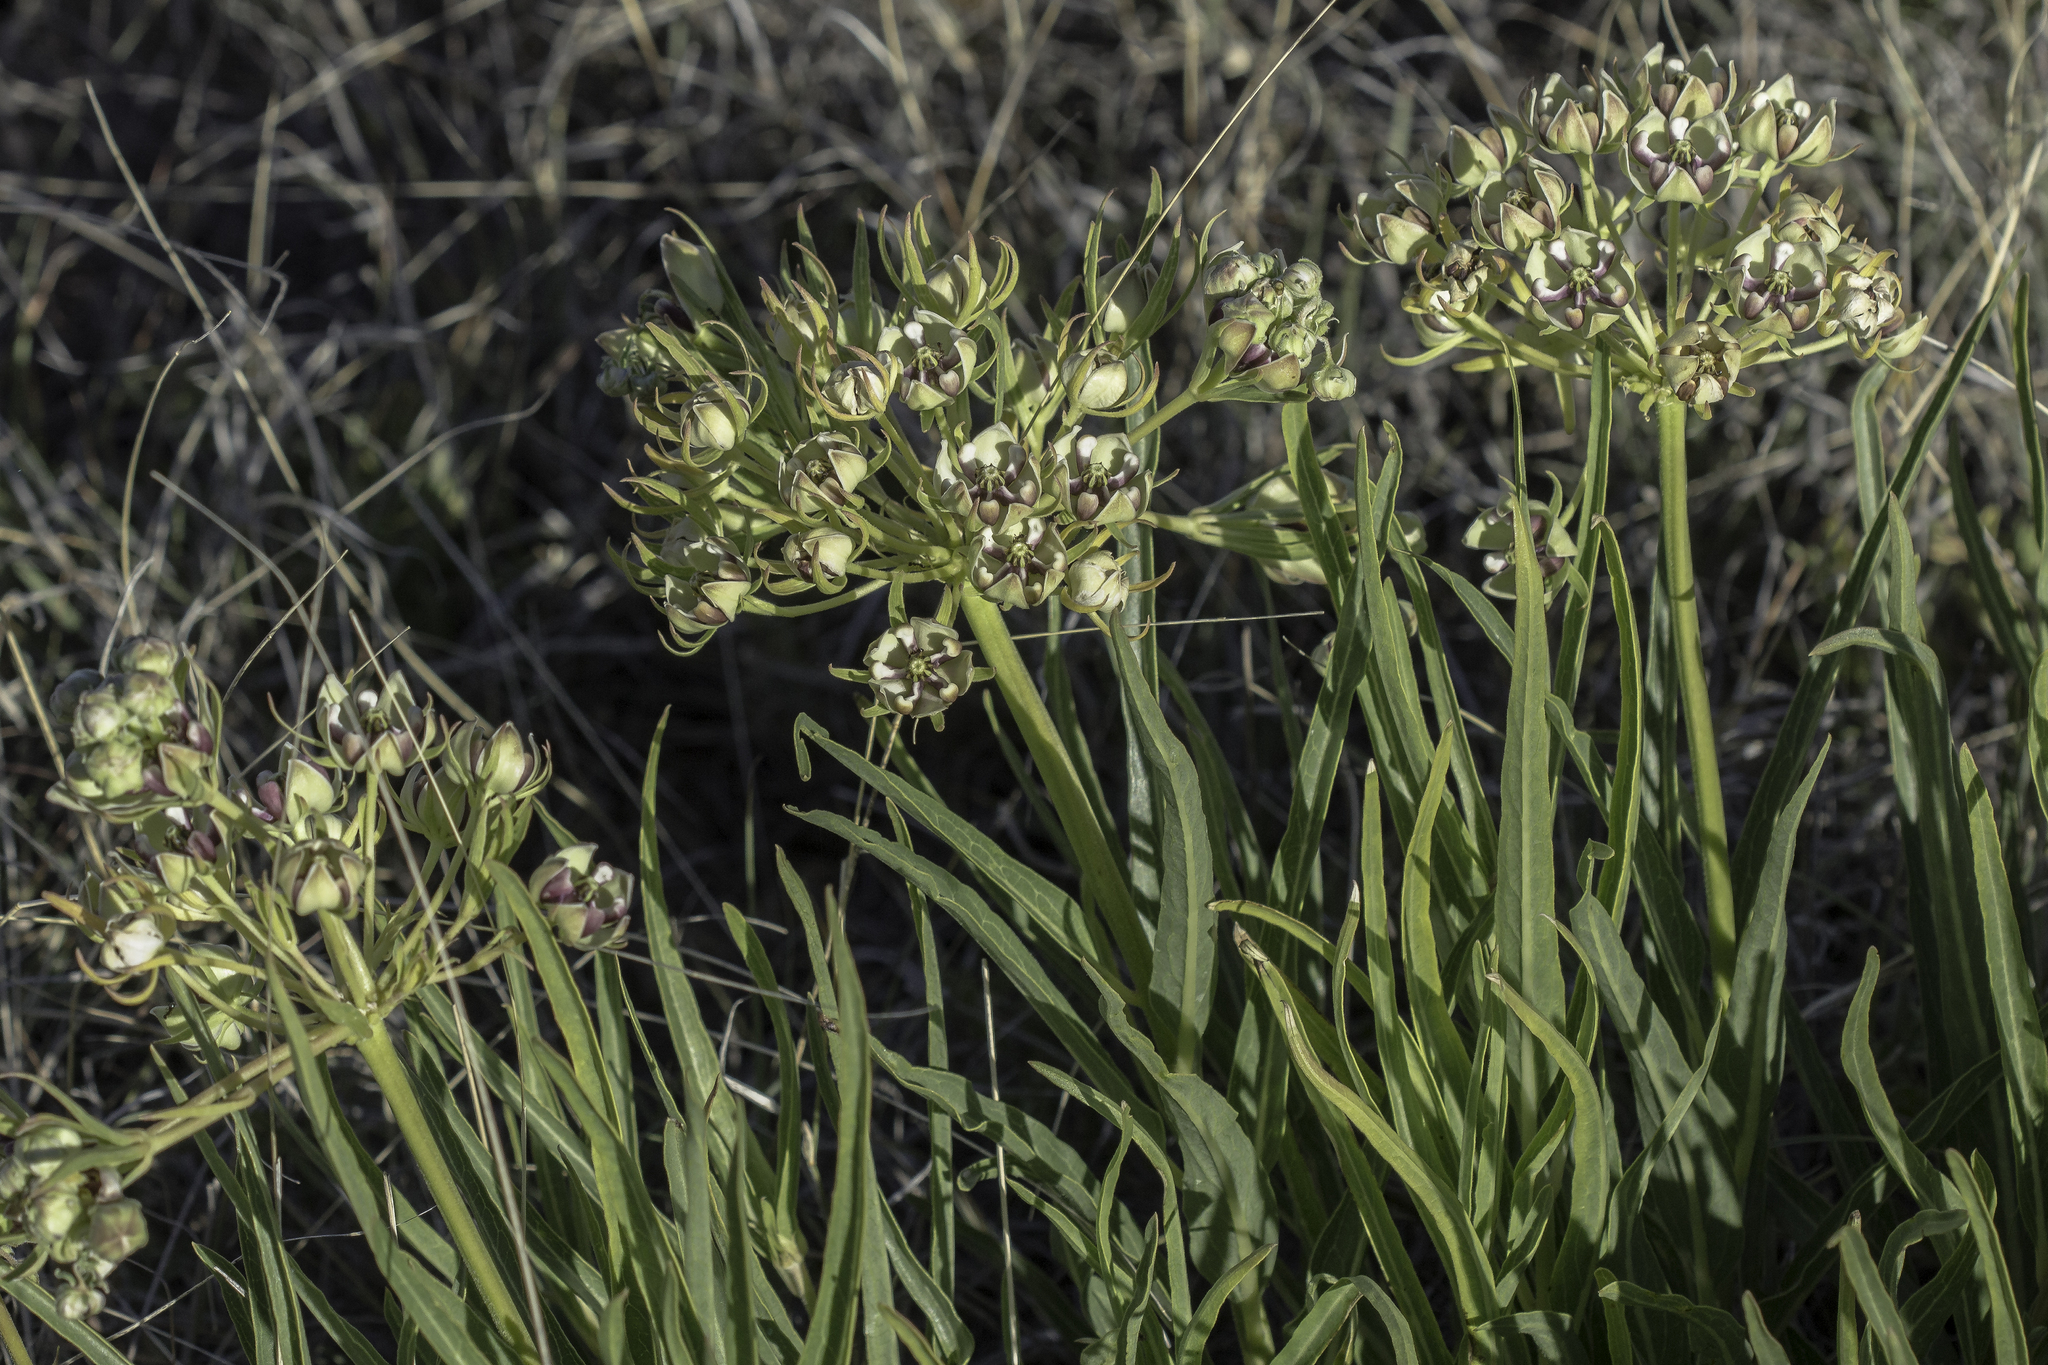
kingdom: Plantae
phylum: Tracheophyta
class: Magnoliopsida
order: Gentianales
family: Apocynaceae
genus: Asclepias
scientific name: Asclepias asperula
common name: Antelope horns
